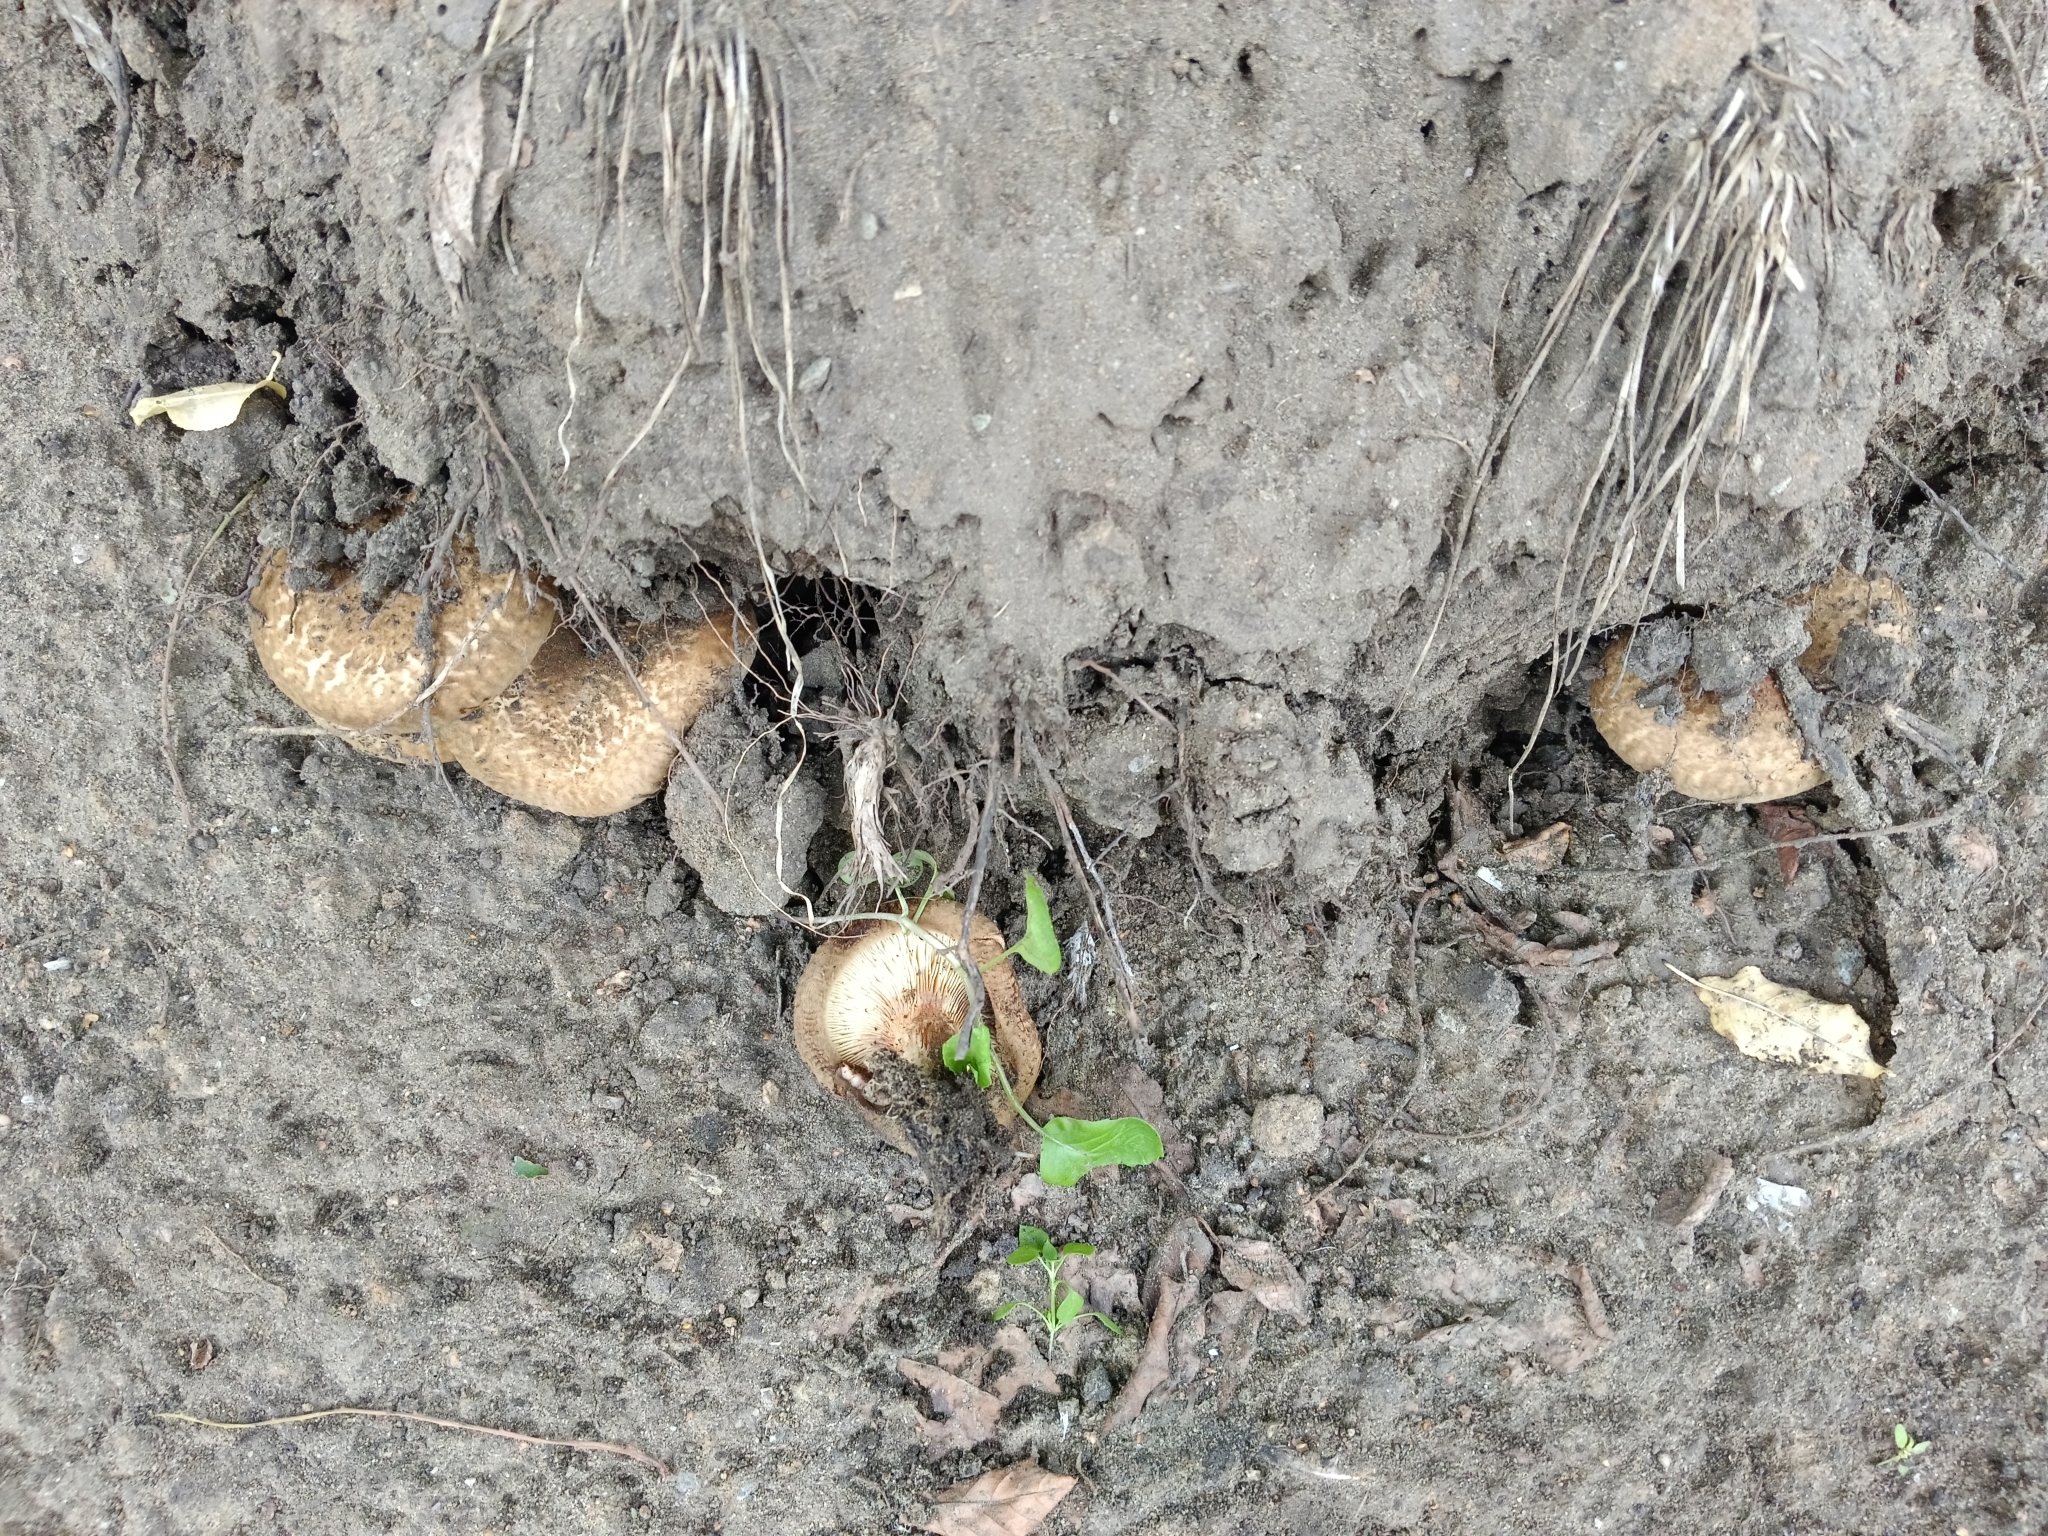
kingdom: Fungi
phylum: Basidiomycota
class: Agaricomycetes
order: Boletales
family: Paxillaceae
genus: Paxillus
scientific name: Paxillus involutus
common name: Brown roll rim
